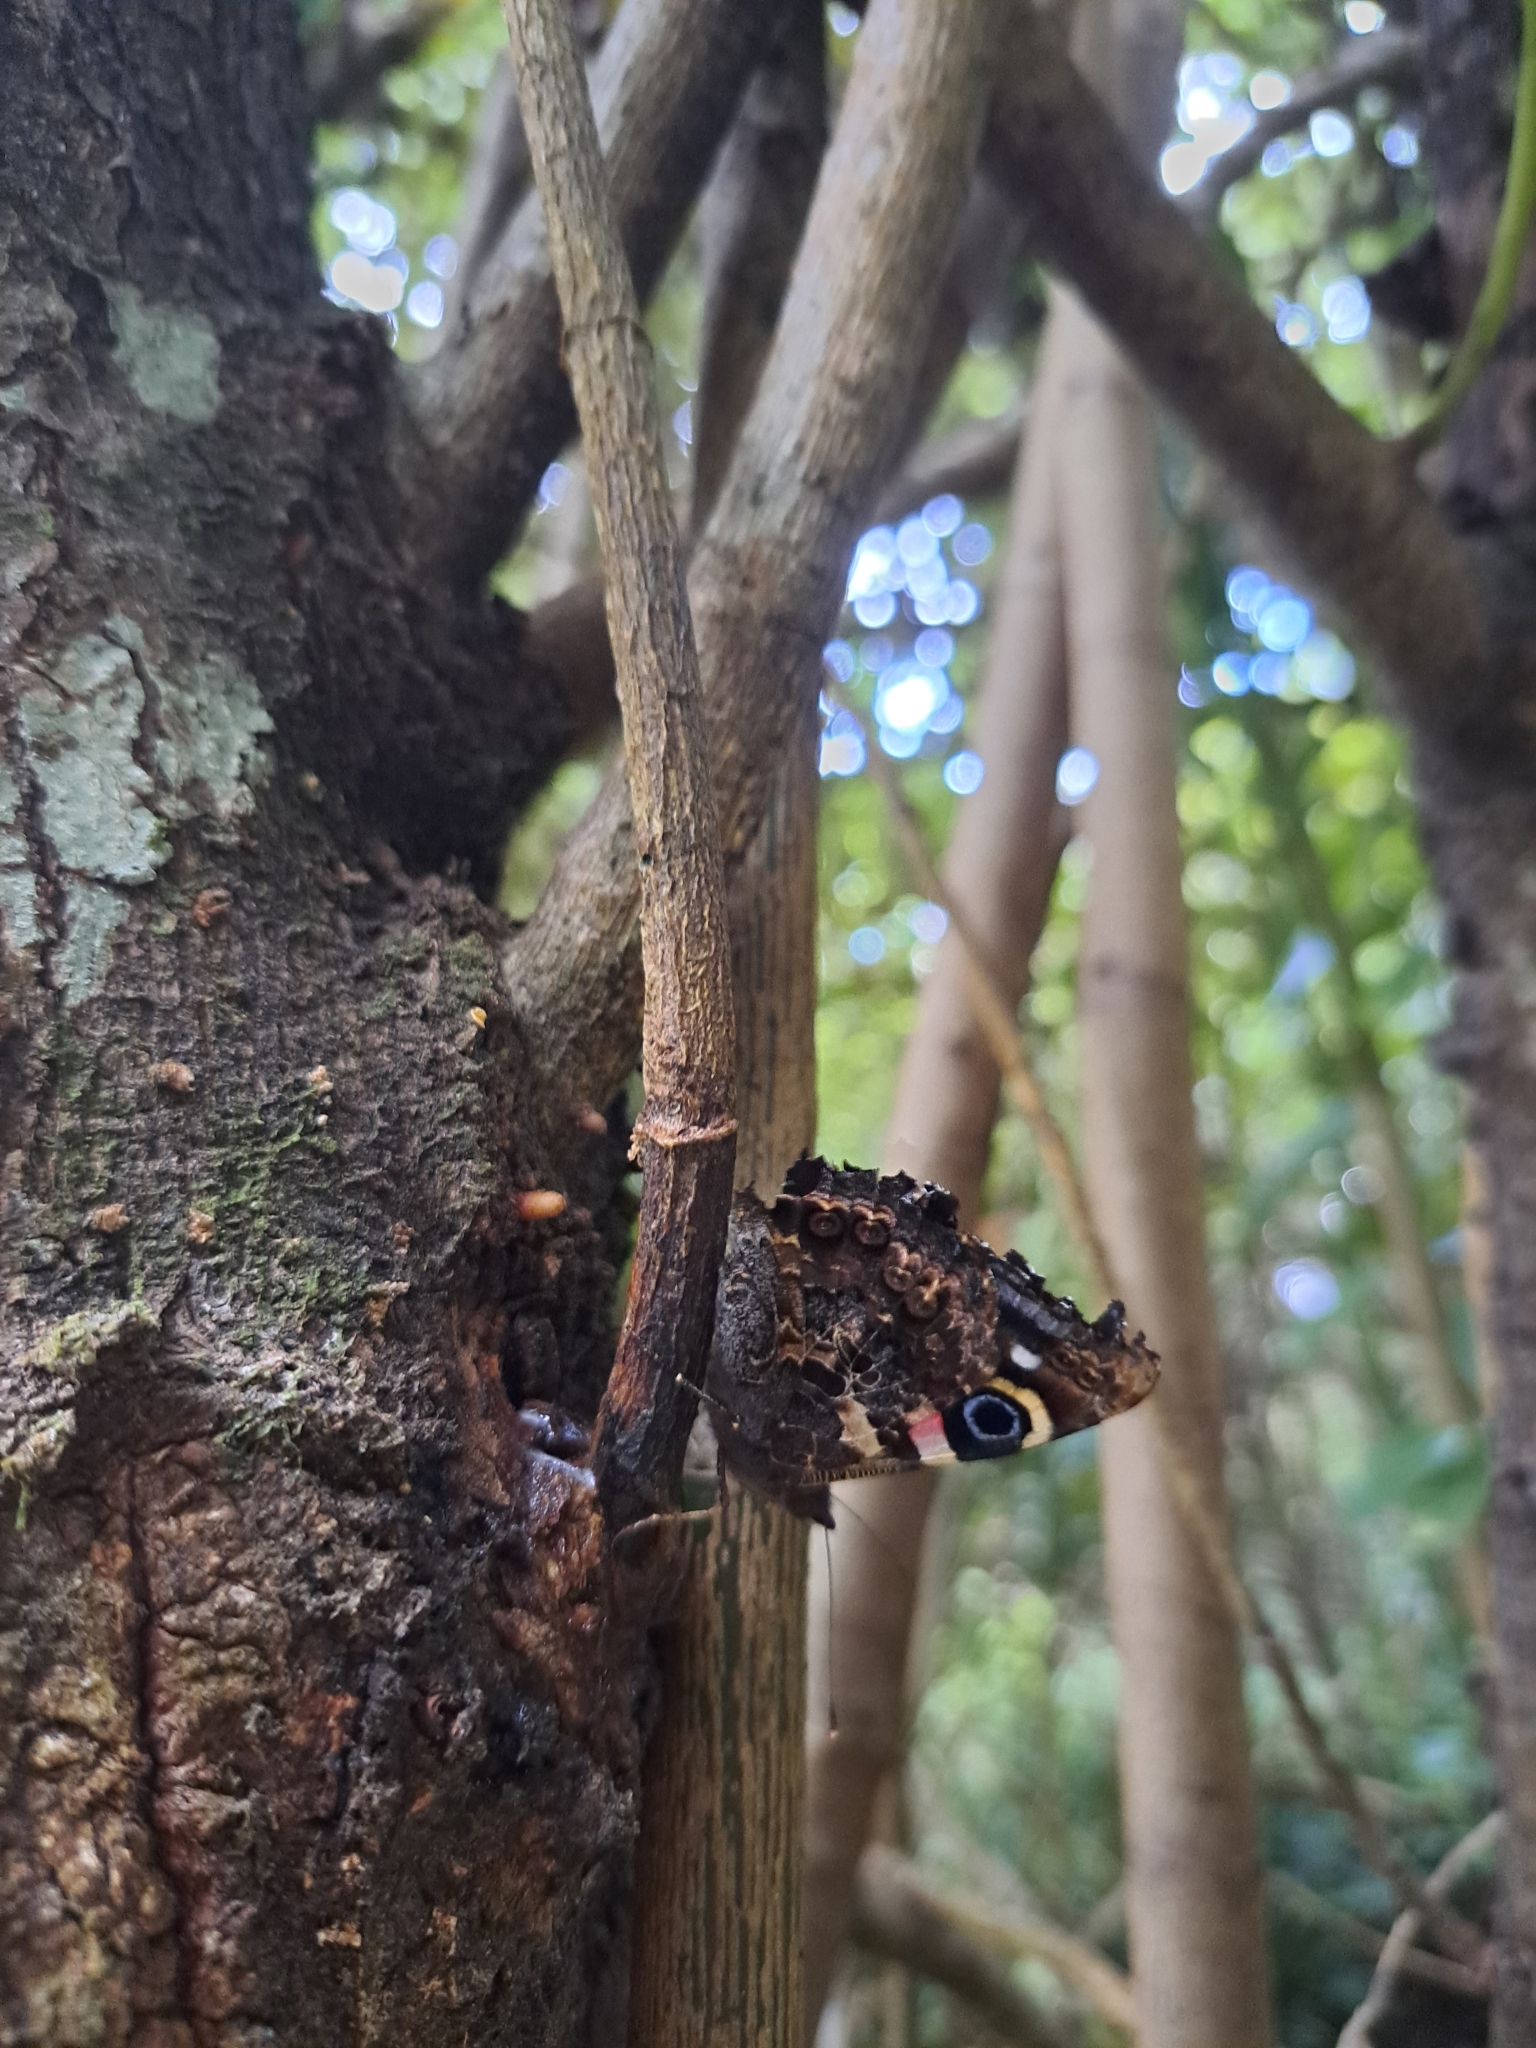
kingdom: Animalia
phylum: Arthropoda
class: Insecta
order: Lepidoptera
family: Nymphalidae
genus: Vanessa
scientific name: Vanessa gonerilla
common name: New zealand red admiral
